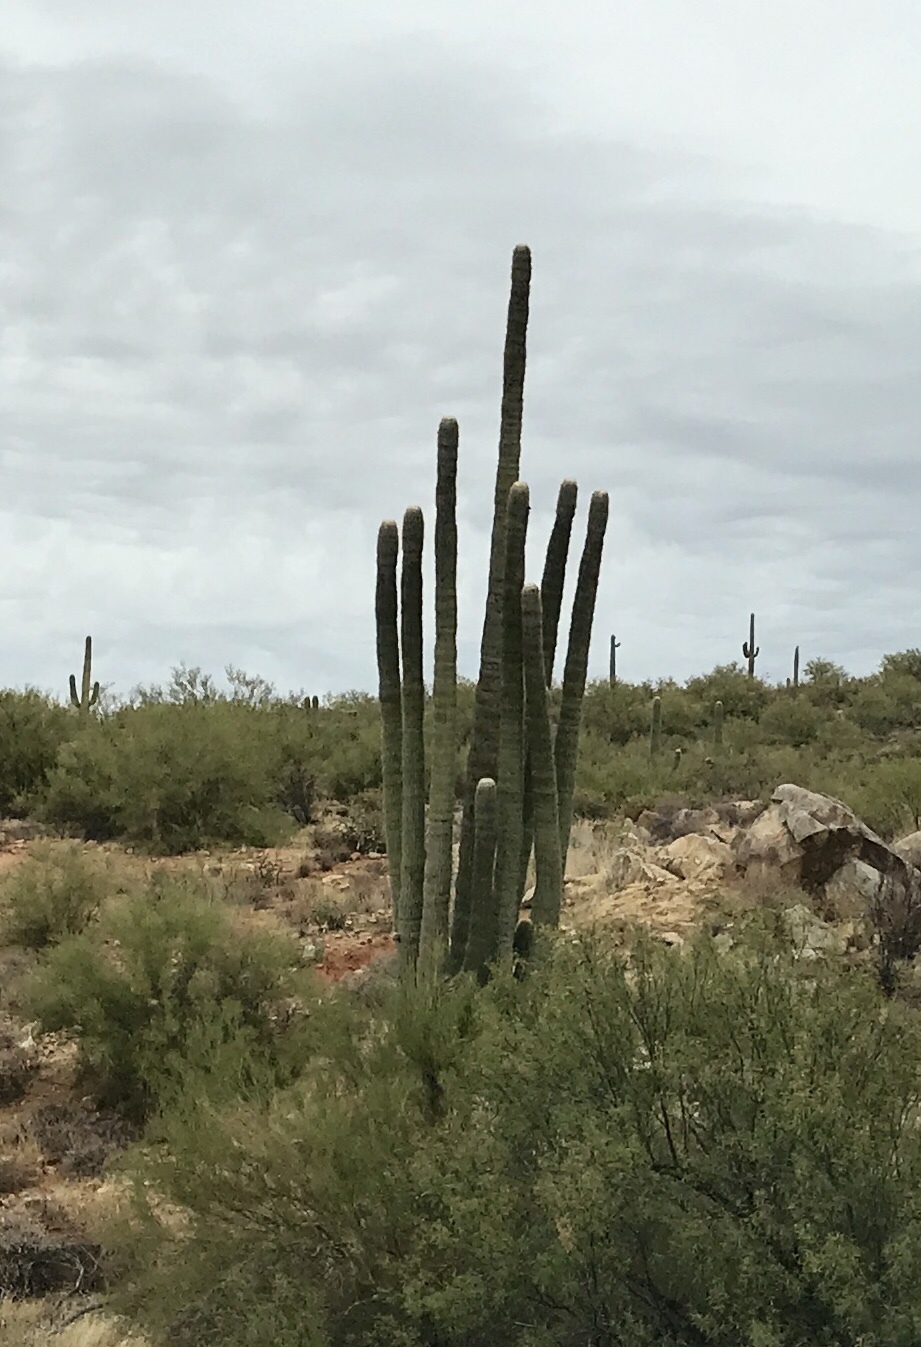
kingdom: Plantae
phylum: Tracheophyta
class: Magnoliopsida
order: Caryophyllales
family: Cactaceae
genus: Carnegiea
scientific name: Carnegiea gigantea
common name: Saguaro
